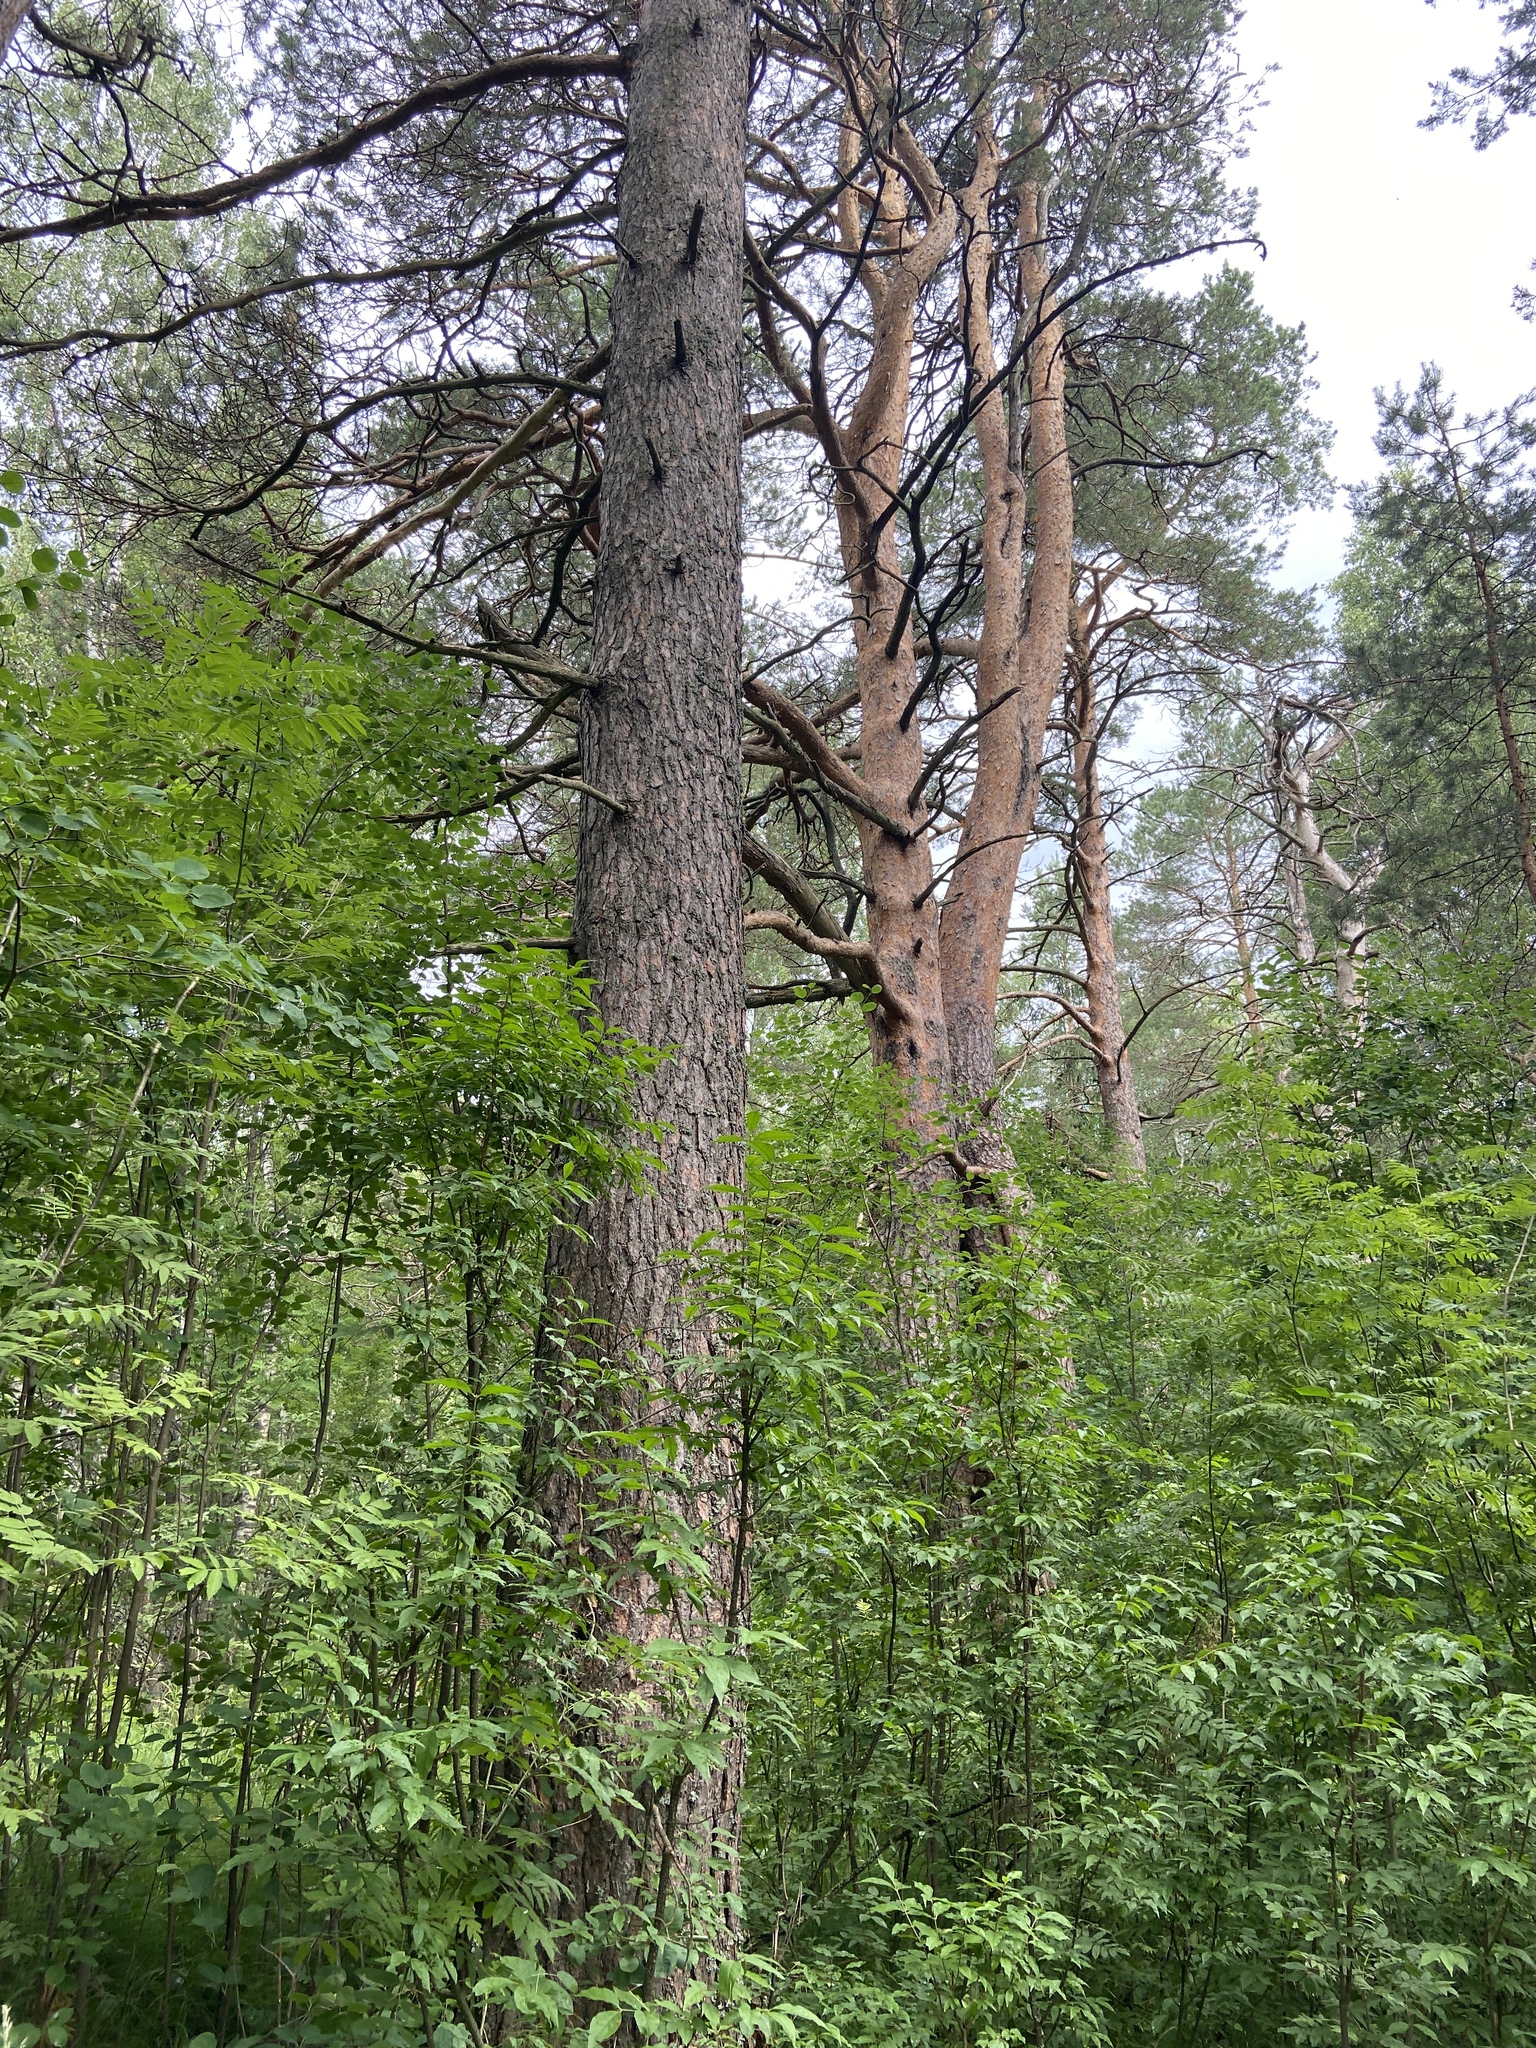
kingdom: Plantae
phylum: Tracheophyta
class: Pinopsida
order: Pinales
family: Pinaceae
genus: Pinus
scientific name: Pinus sylvestris
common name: Scots pine
